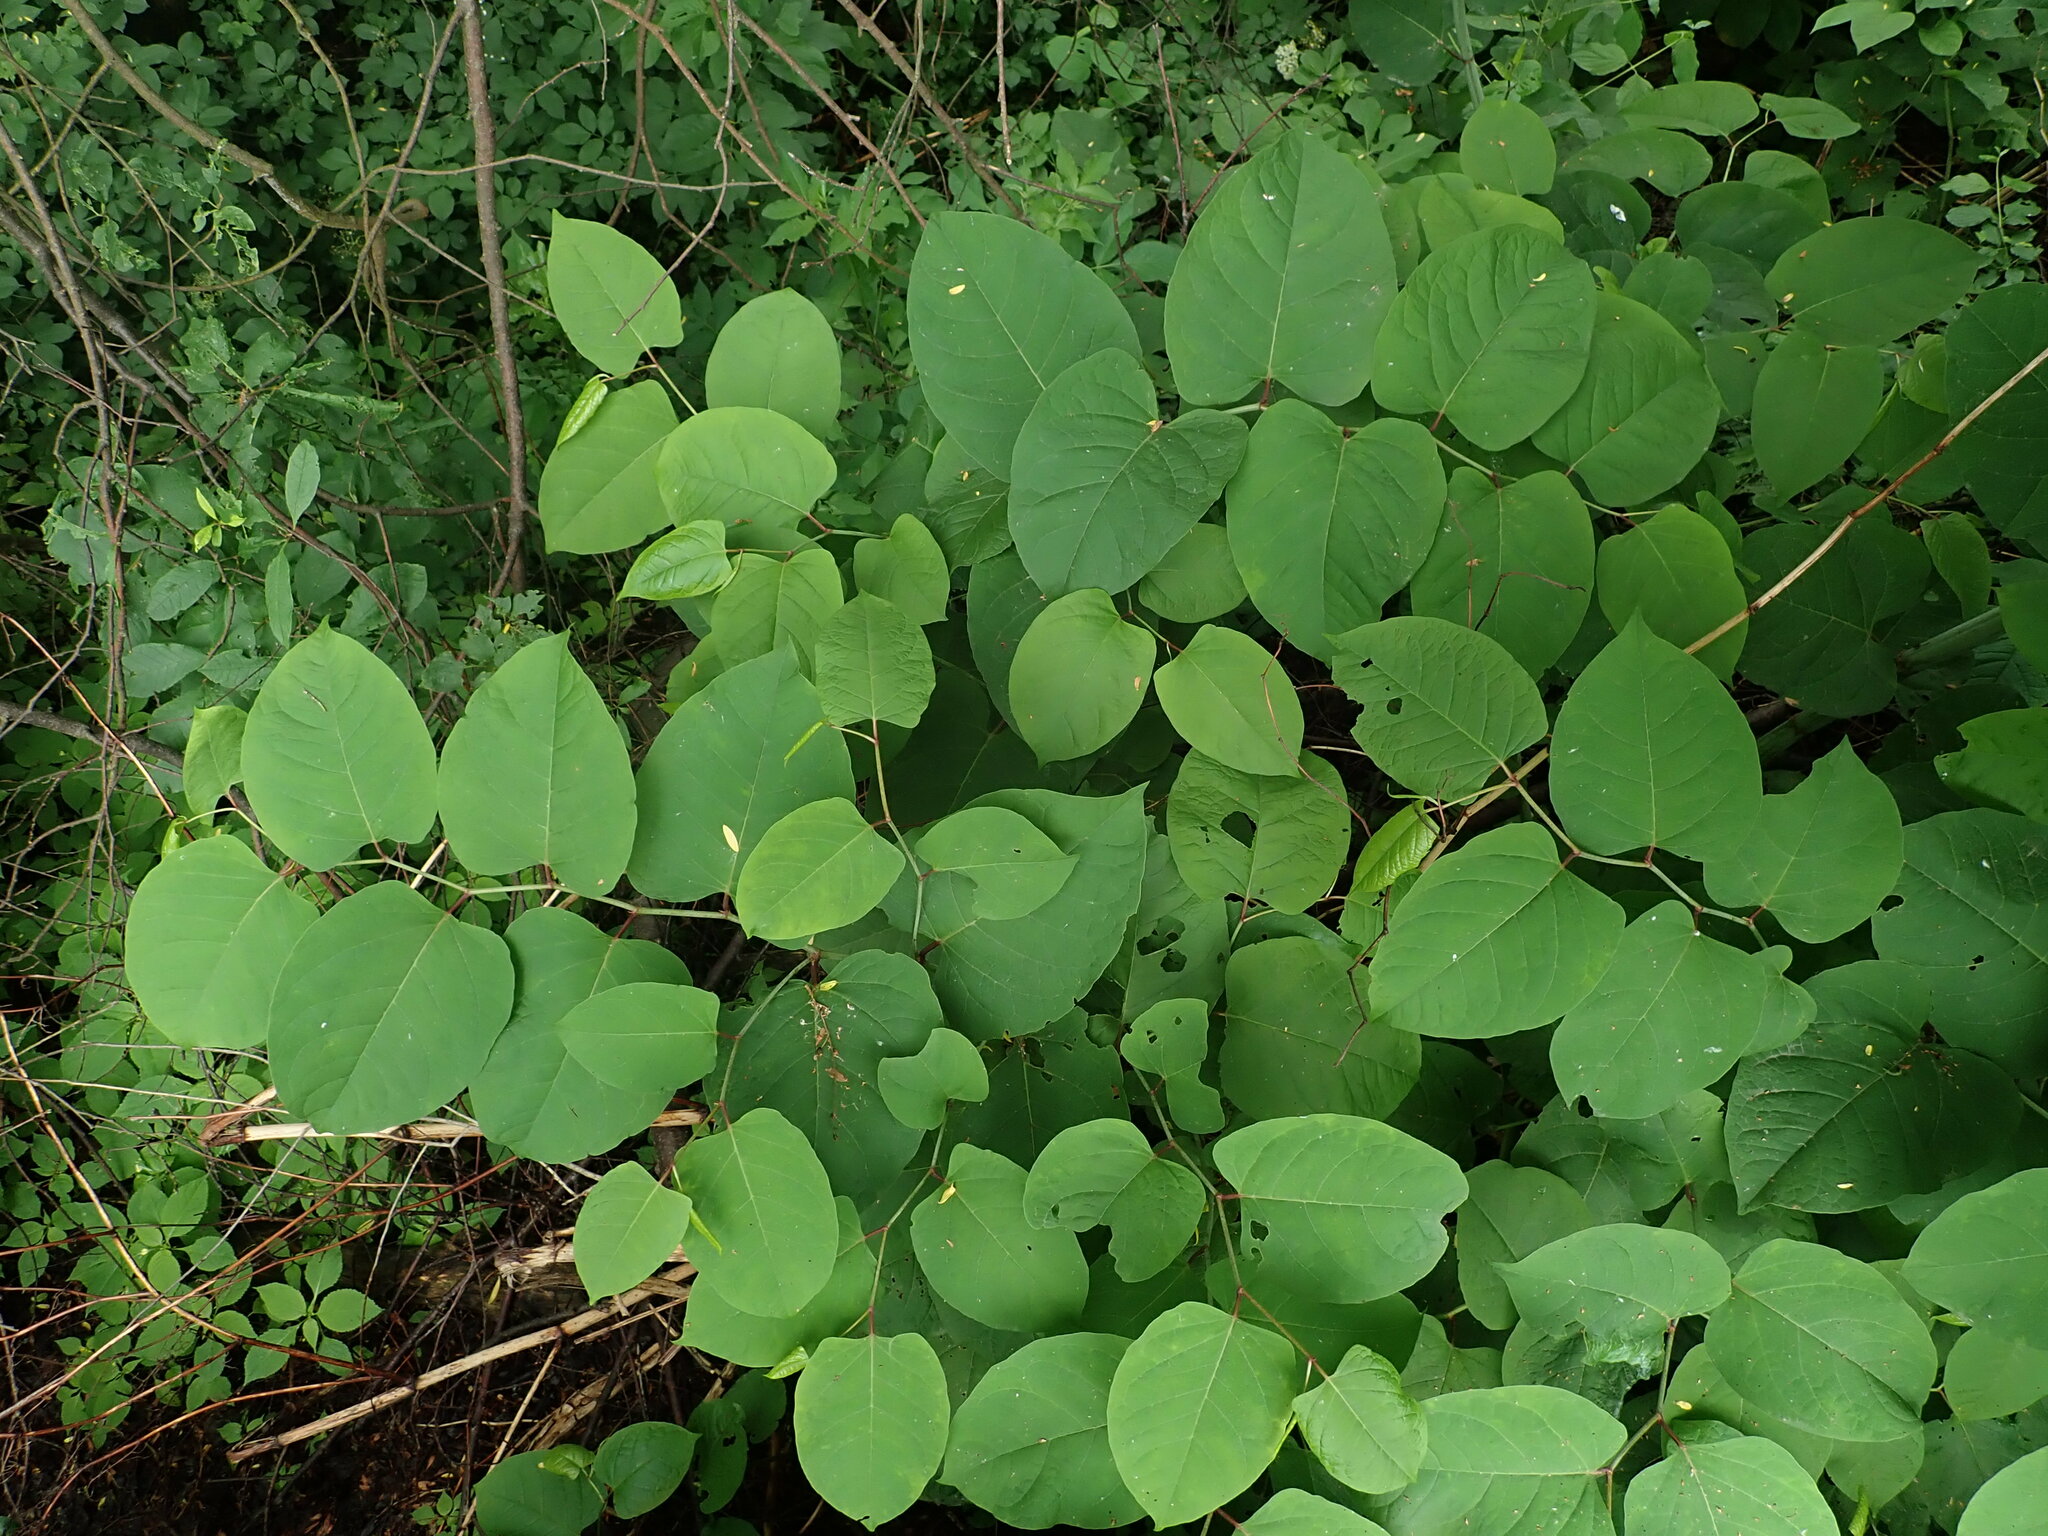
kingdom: Plantae
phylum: Tracheophyta
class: Magnoliopsida
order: Caryophyllales
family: Polygonaceae
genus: Reynoutria
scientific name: Reynoutria bohemica
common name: Bohemian knotweed
